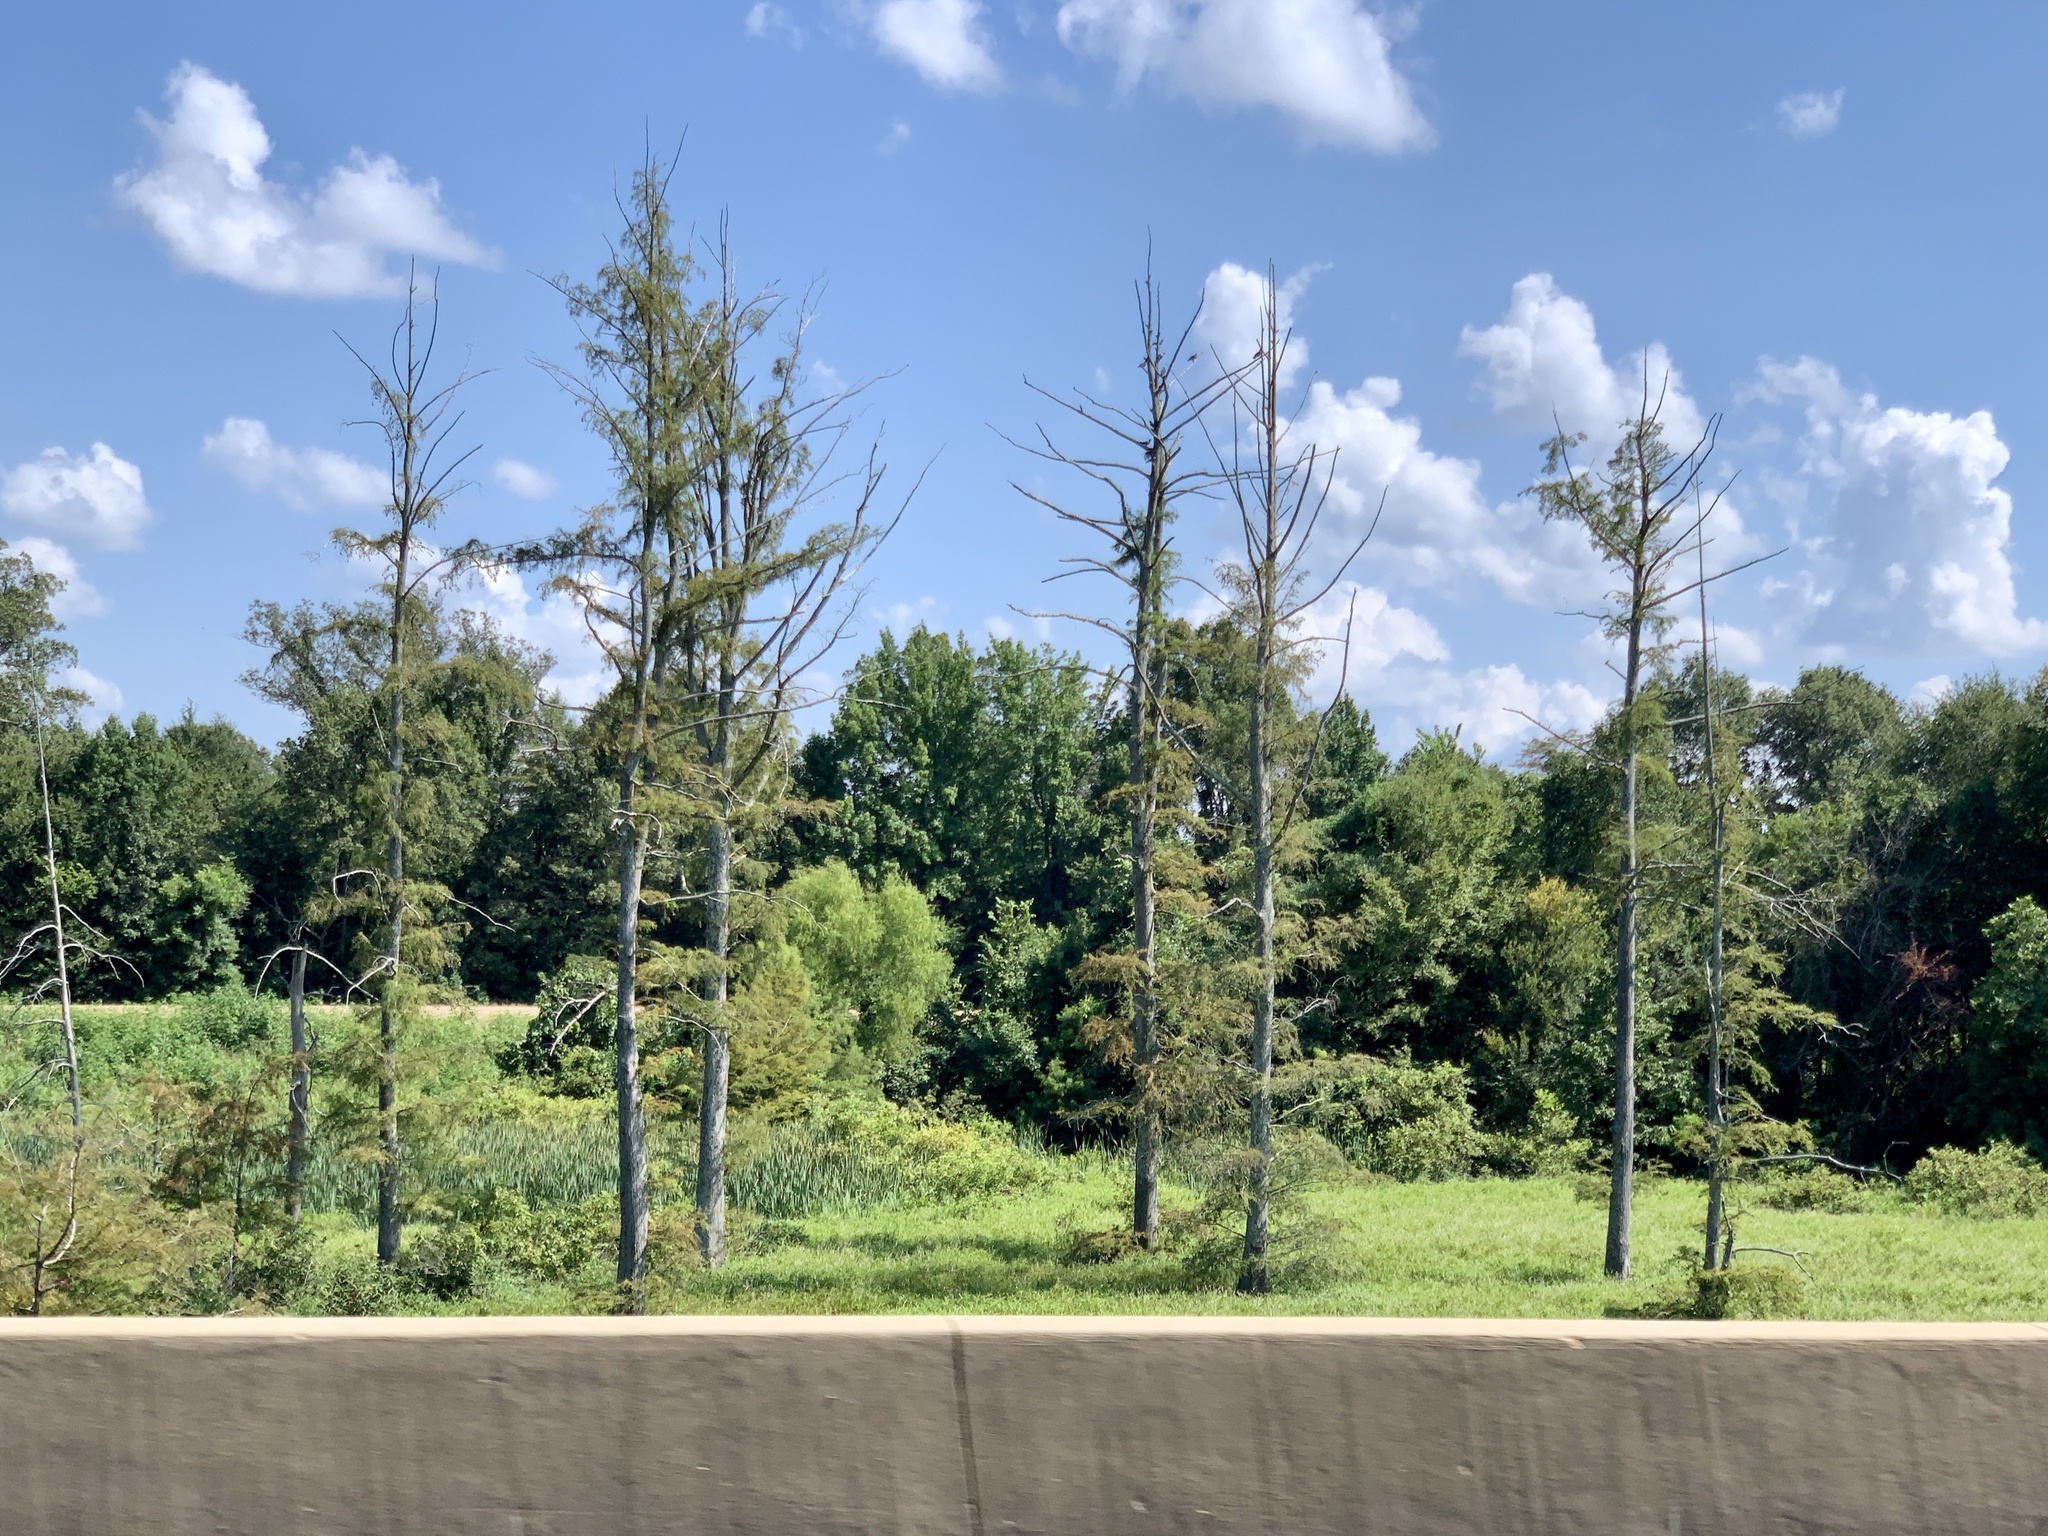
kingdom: Plantae
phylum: Tracheophyta
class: Pinopsida
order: Pinales
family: Cupressaceae
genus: Taxodium
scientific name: Taxodium distichum
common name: Bald cypress
